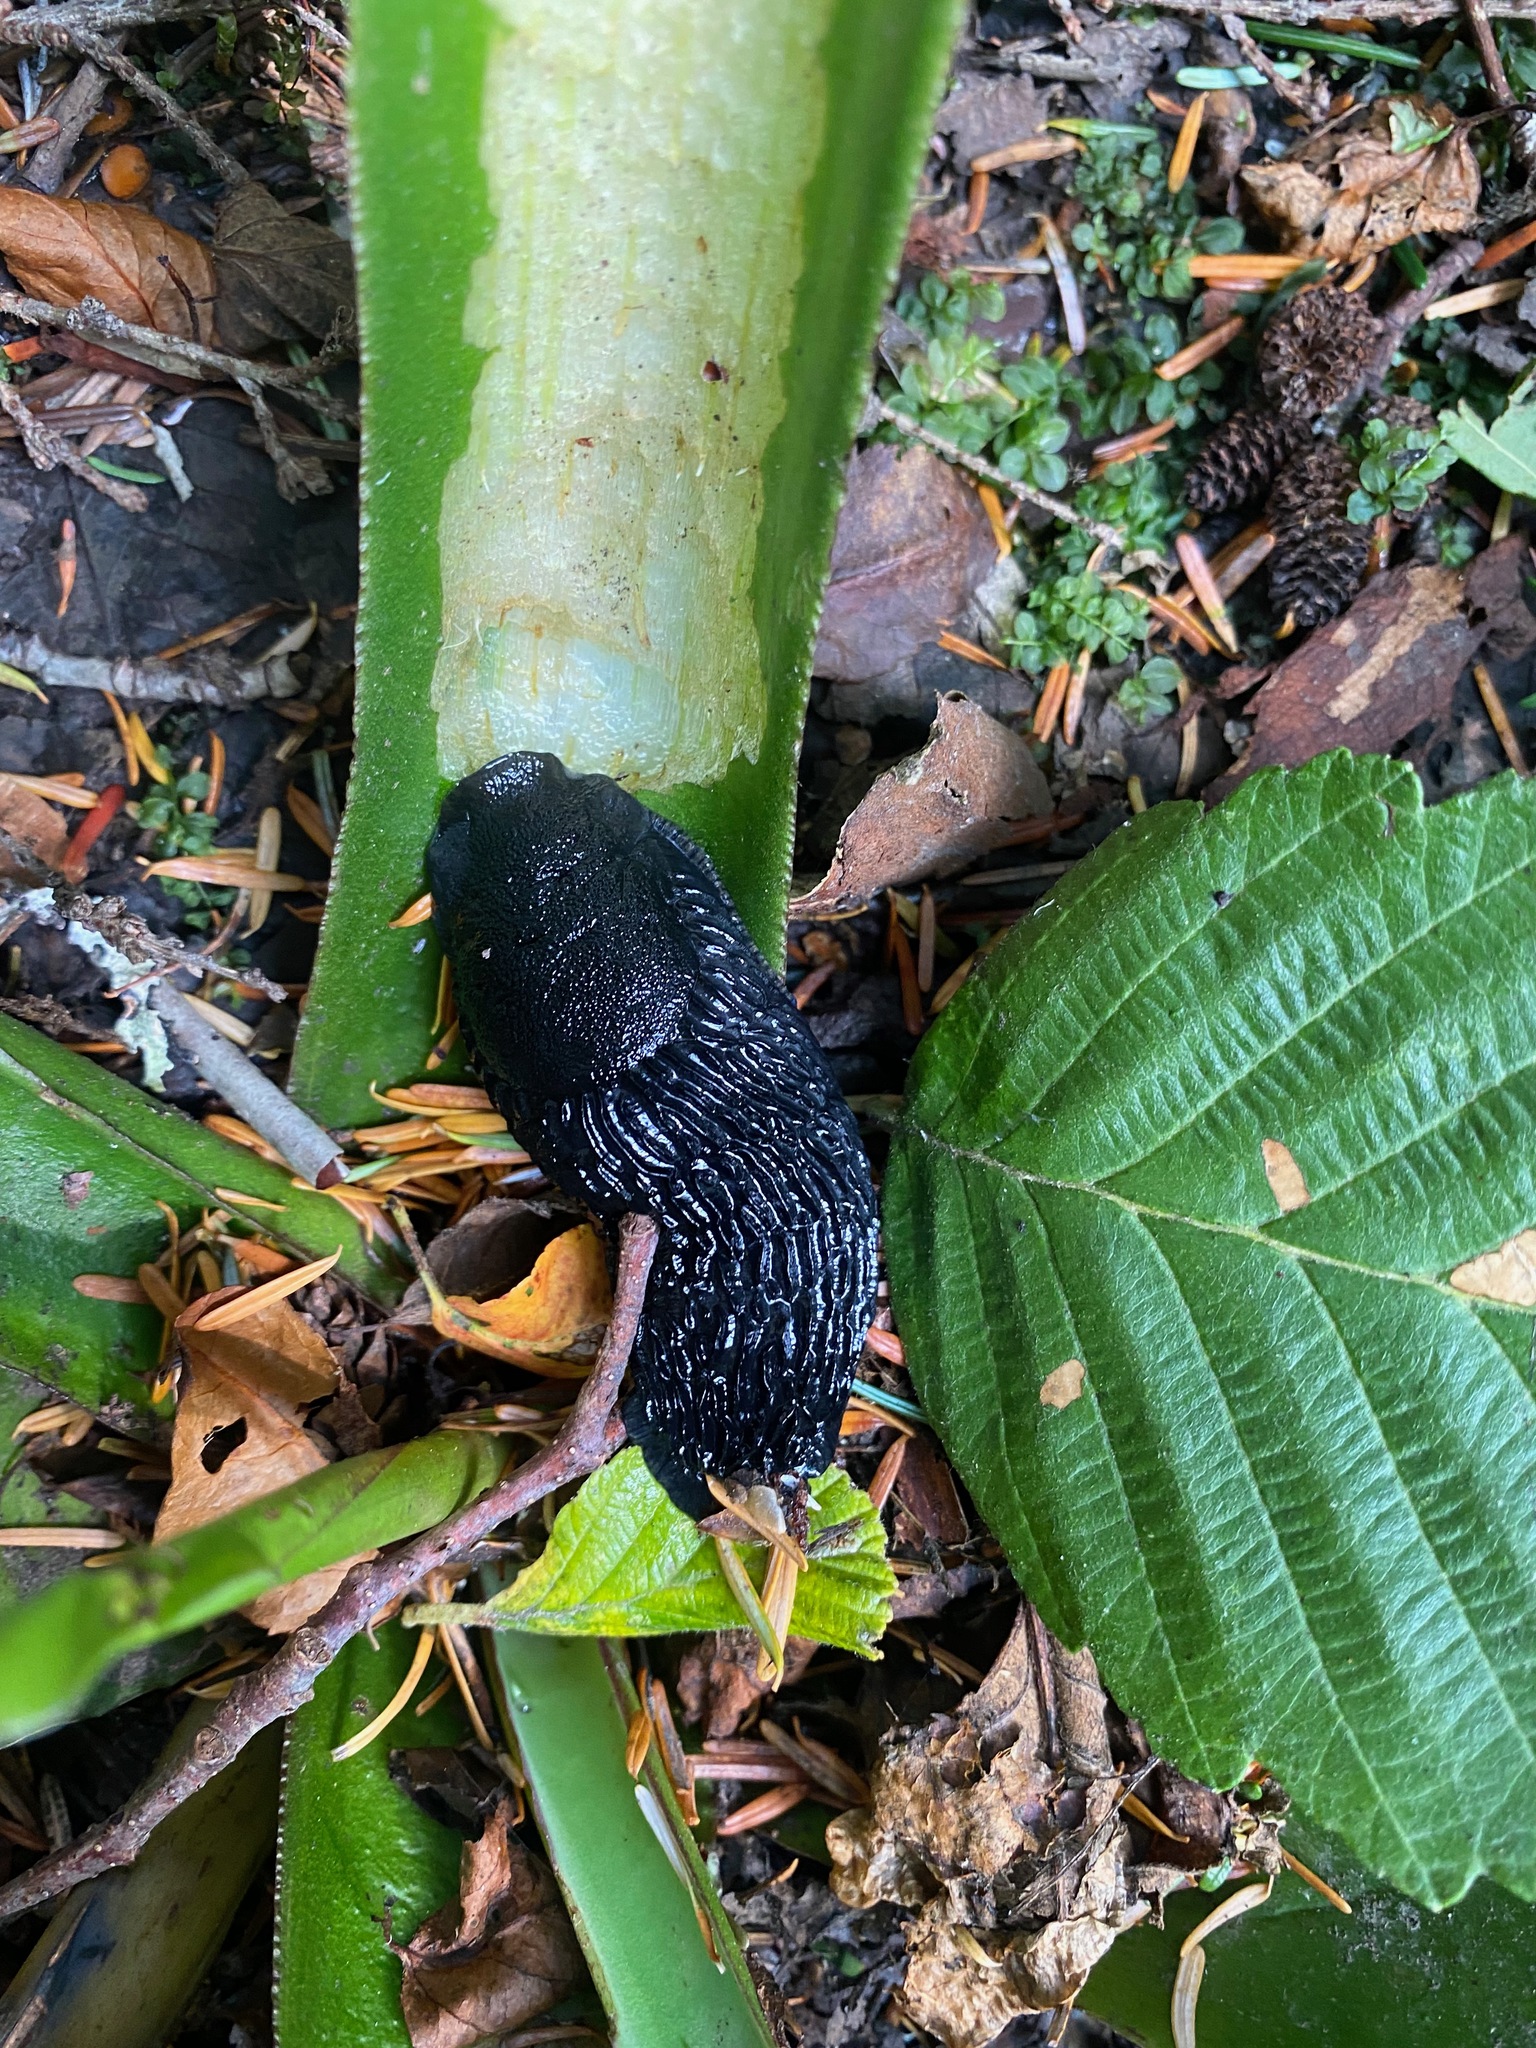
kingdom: Animalia
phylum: Mollusca
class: Gastropoda
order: Stylommatophora
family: Arionidae
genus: Arion
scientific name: Arion
